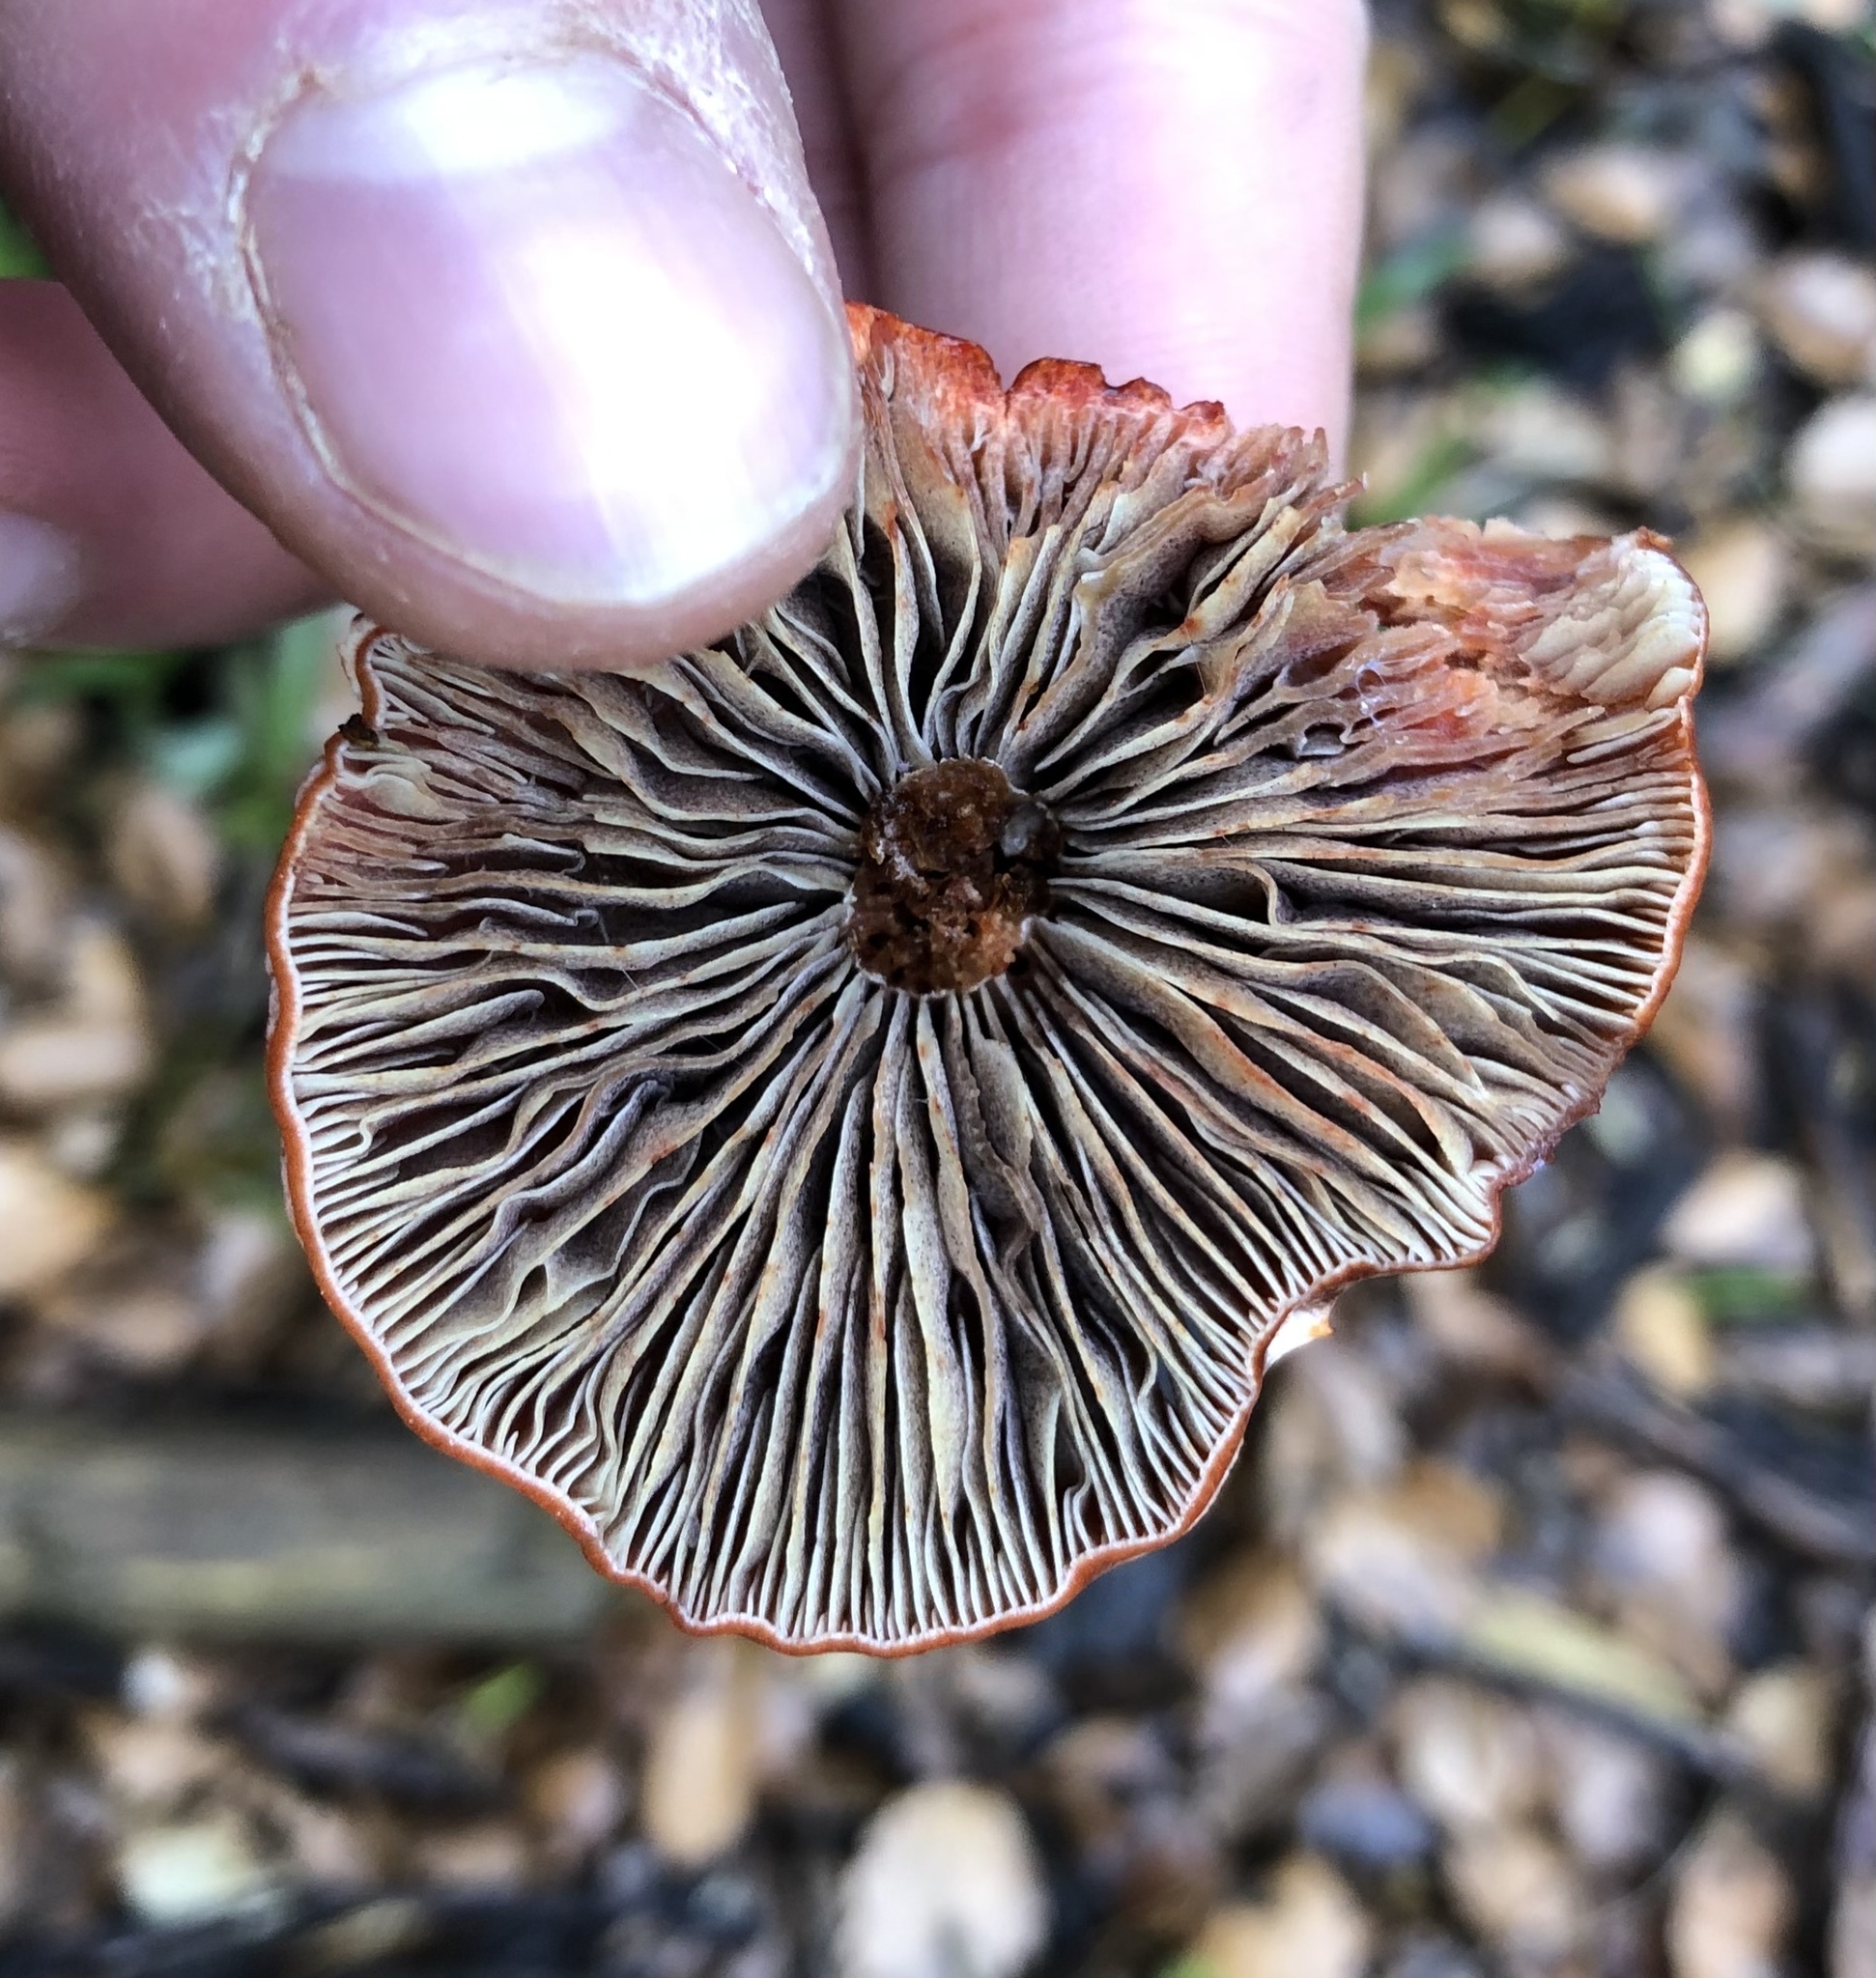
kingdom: Fungi
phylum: Basidiomycota
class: Agaricomycetes
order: Agaricales
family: Strophariaceae
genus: Leratiomyces
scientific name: Leratiomyces ceres
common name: Redlead roundhead
